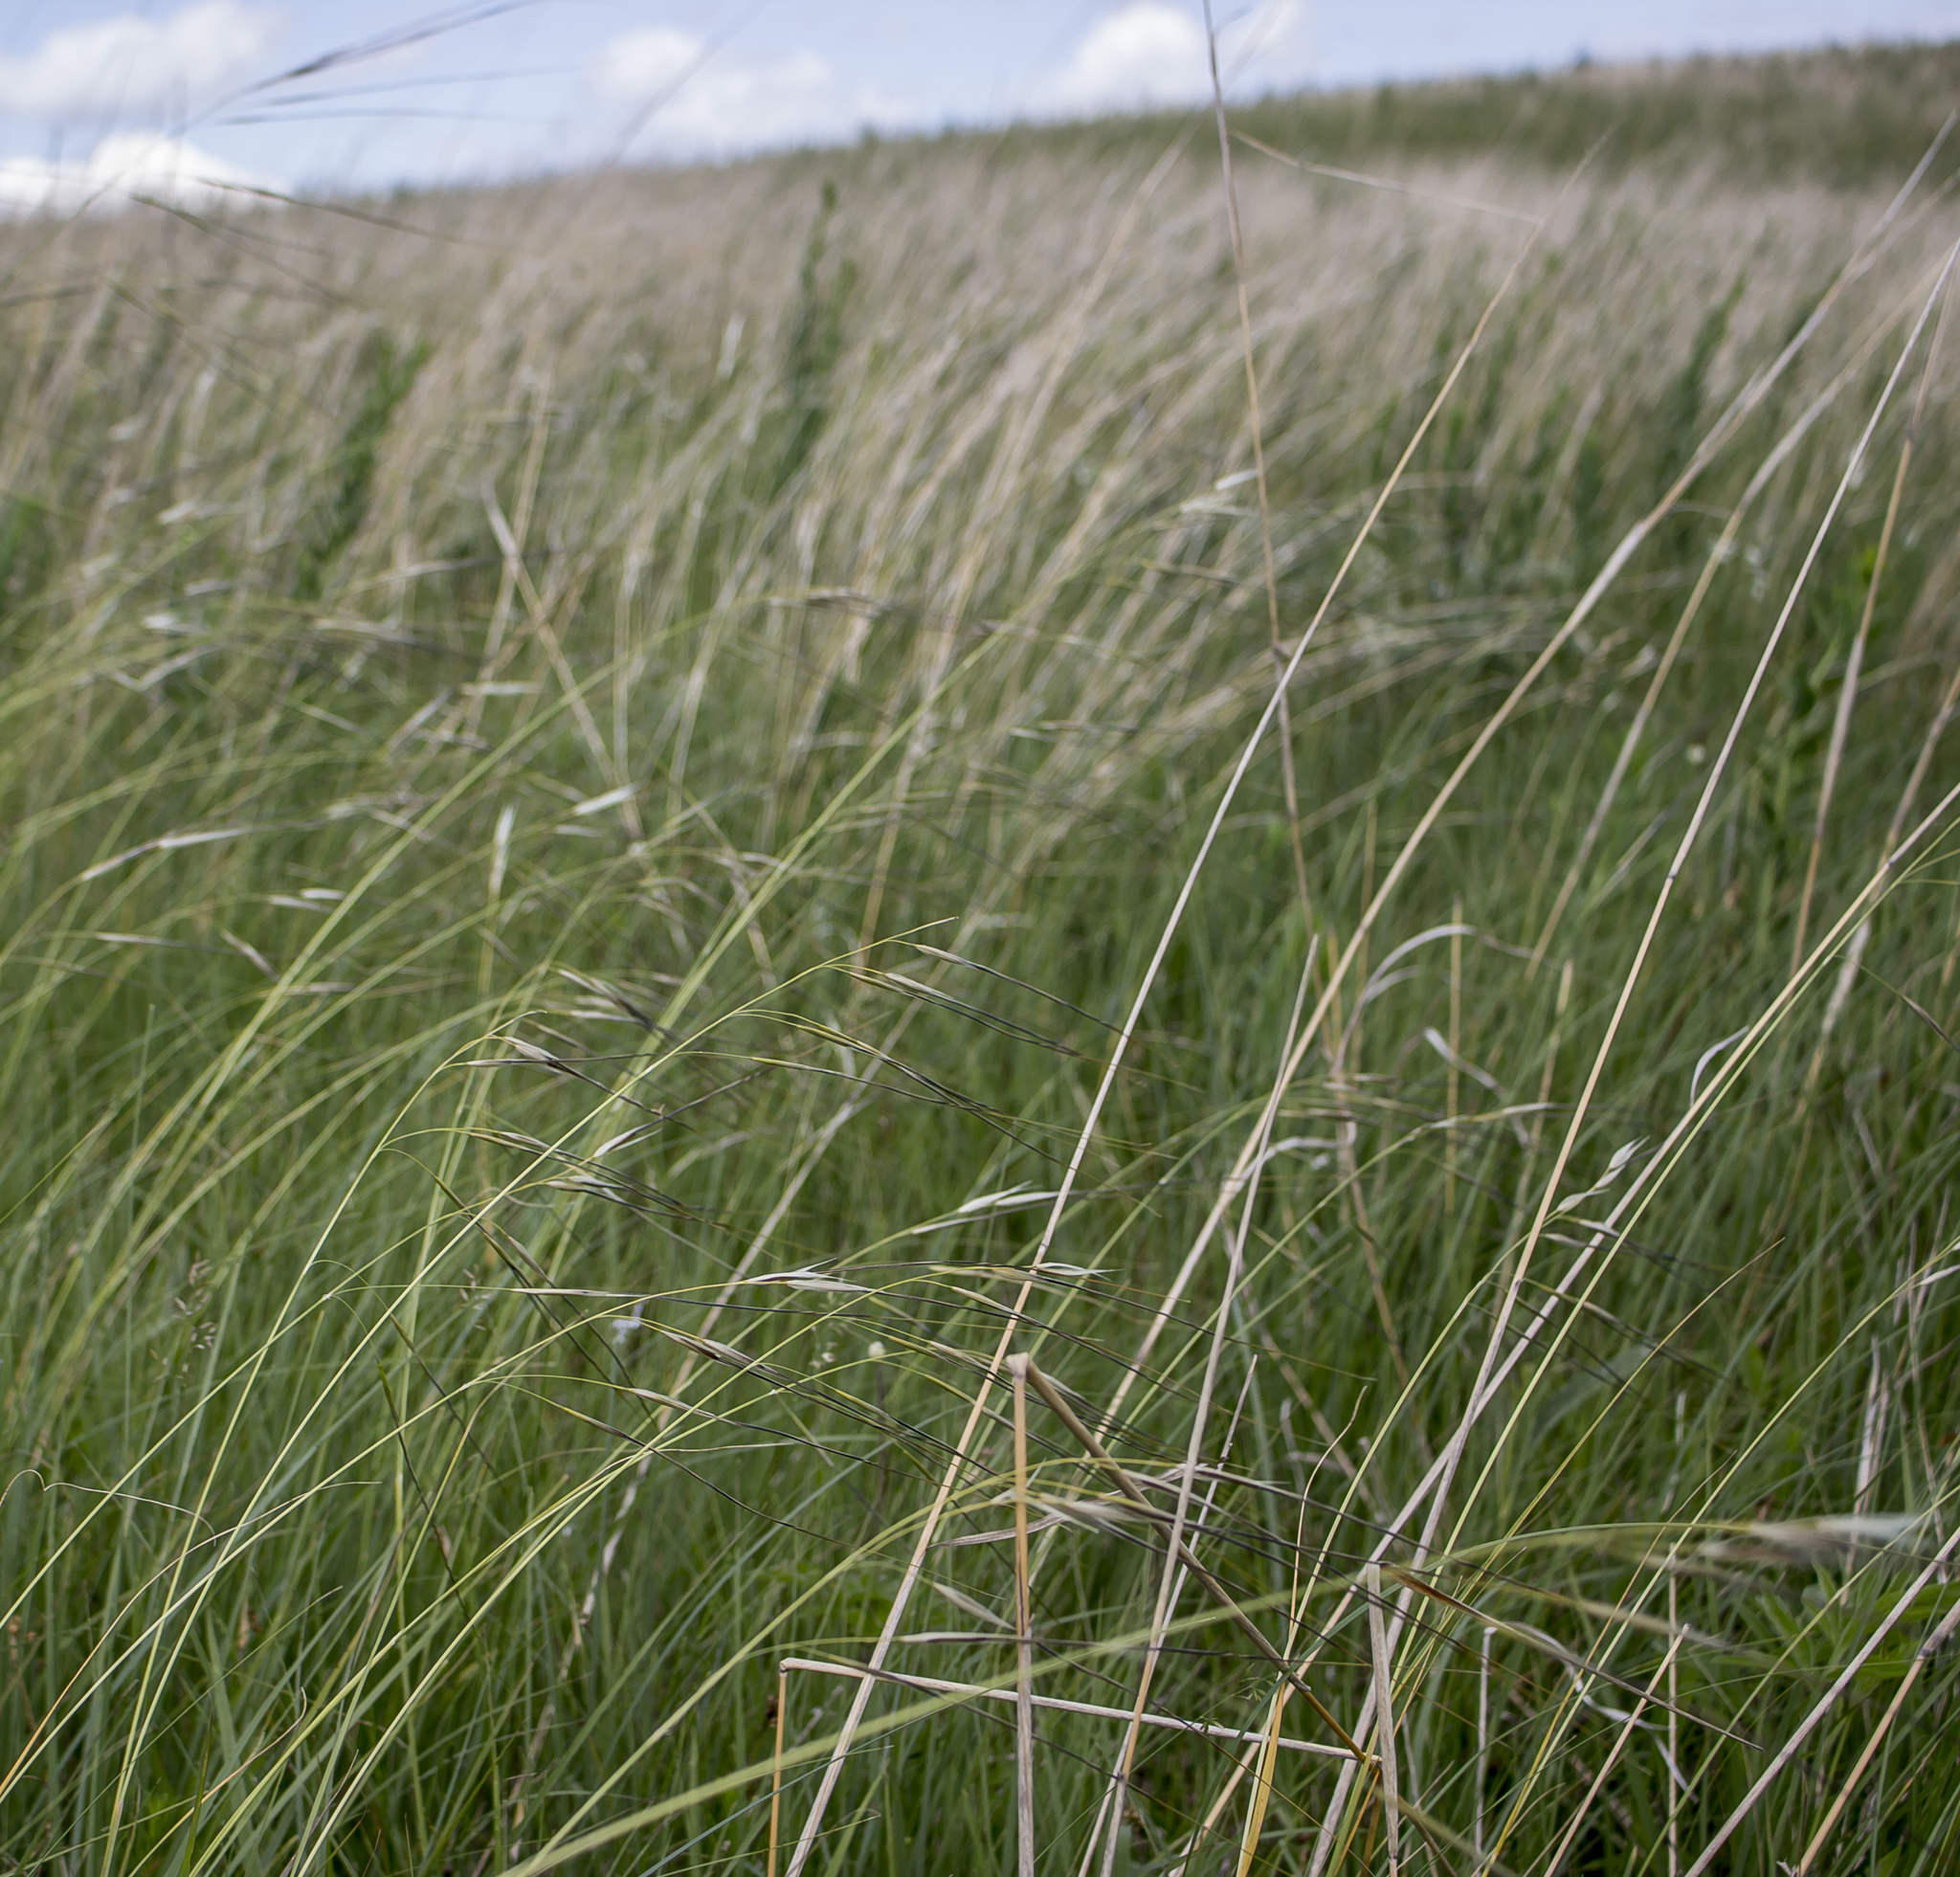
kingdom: Plantae
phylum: Tracheophyta
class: Liliopsida
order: Poales
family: Poaceae
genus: Hesperostipa
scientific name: Hesperostipa spartea
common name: Porcupine grass
